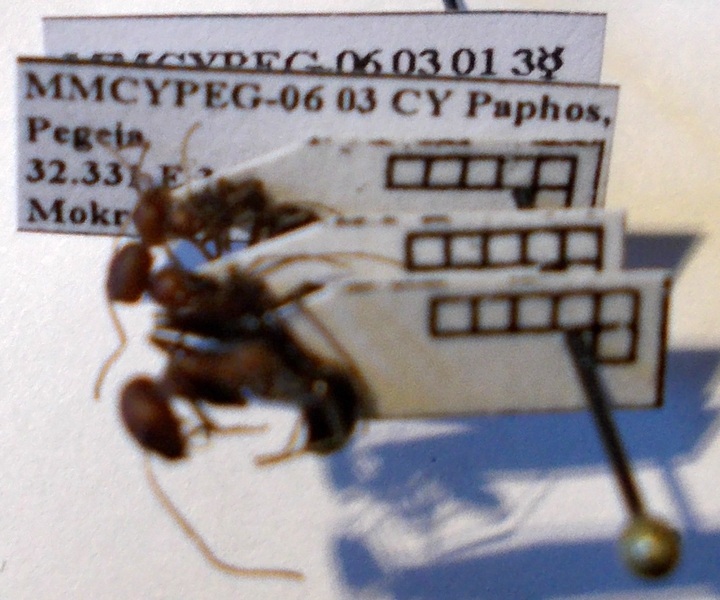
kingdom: Animalia
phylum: Arthropoda
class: Insecta
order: Hymenoptera
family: Formicidae
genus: Cataglyphis
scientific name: Cataglyphis aphrodite
